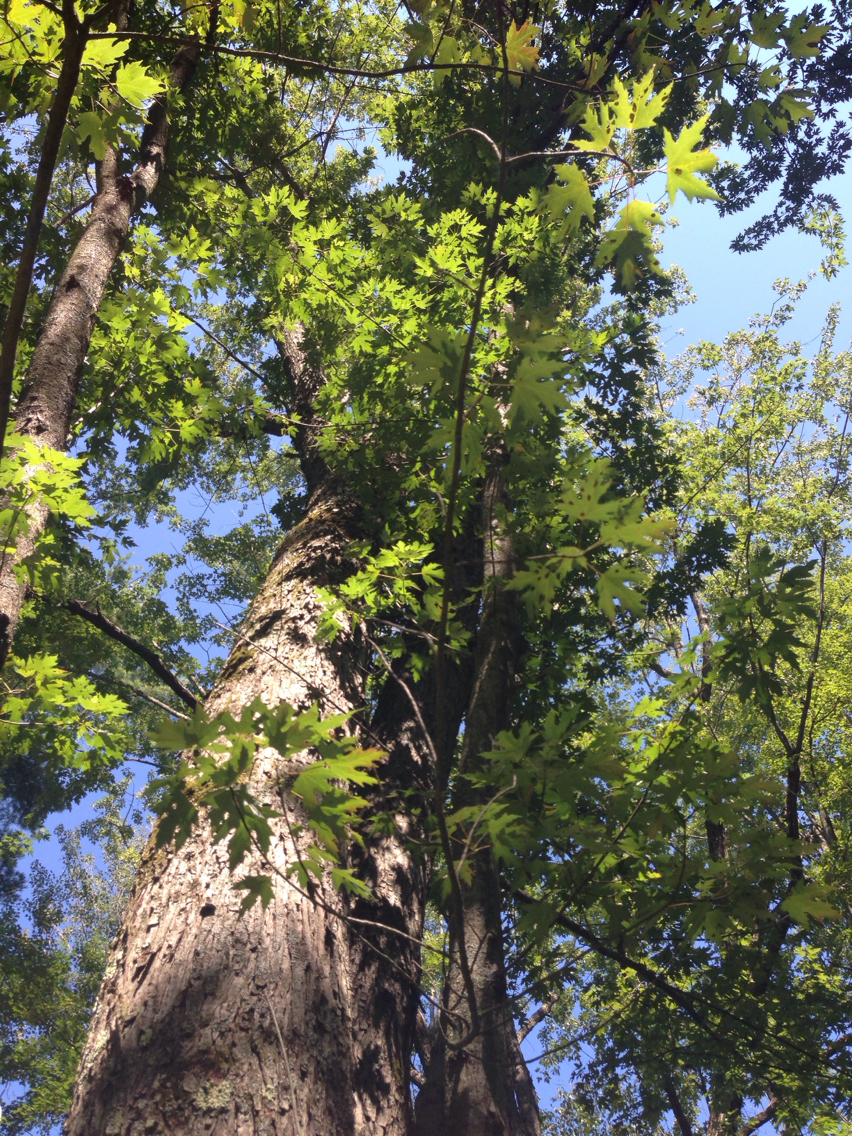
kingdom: Plantae
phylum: Tracheophyta
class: Magnoliopsida
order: Sapindales
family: Sapindaceae
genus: Acer
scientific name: Acer saccharinum
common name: Silver maple
